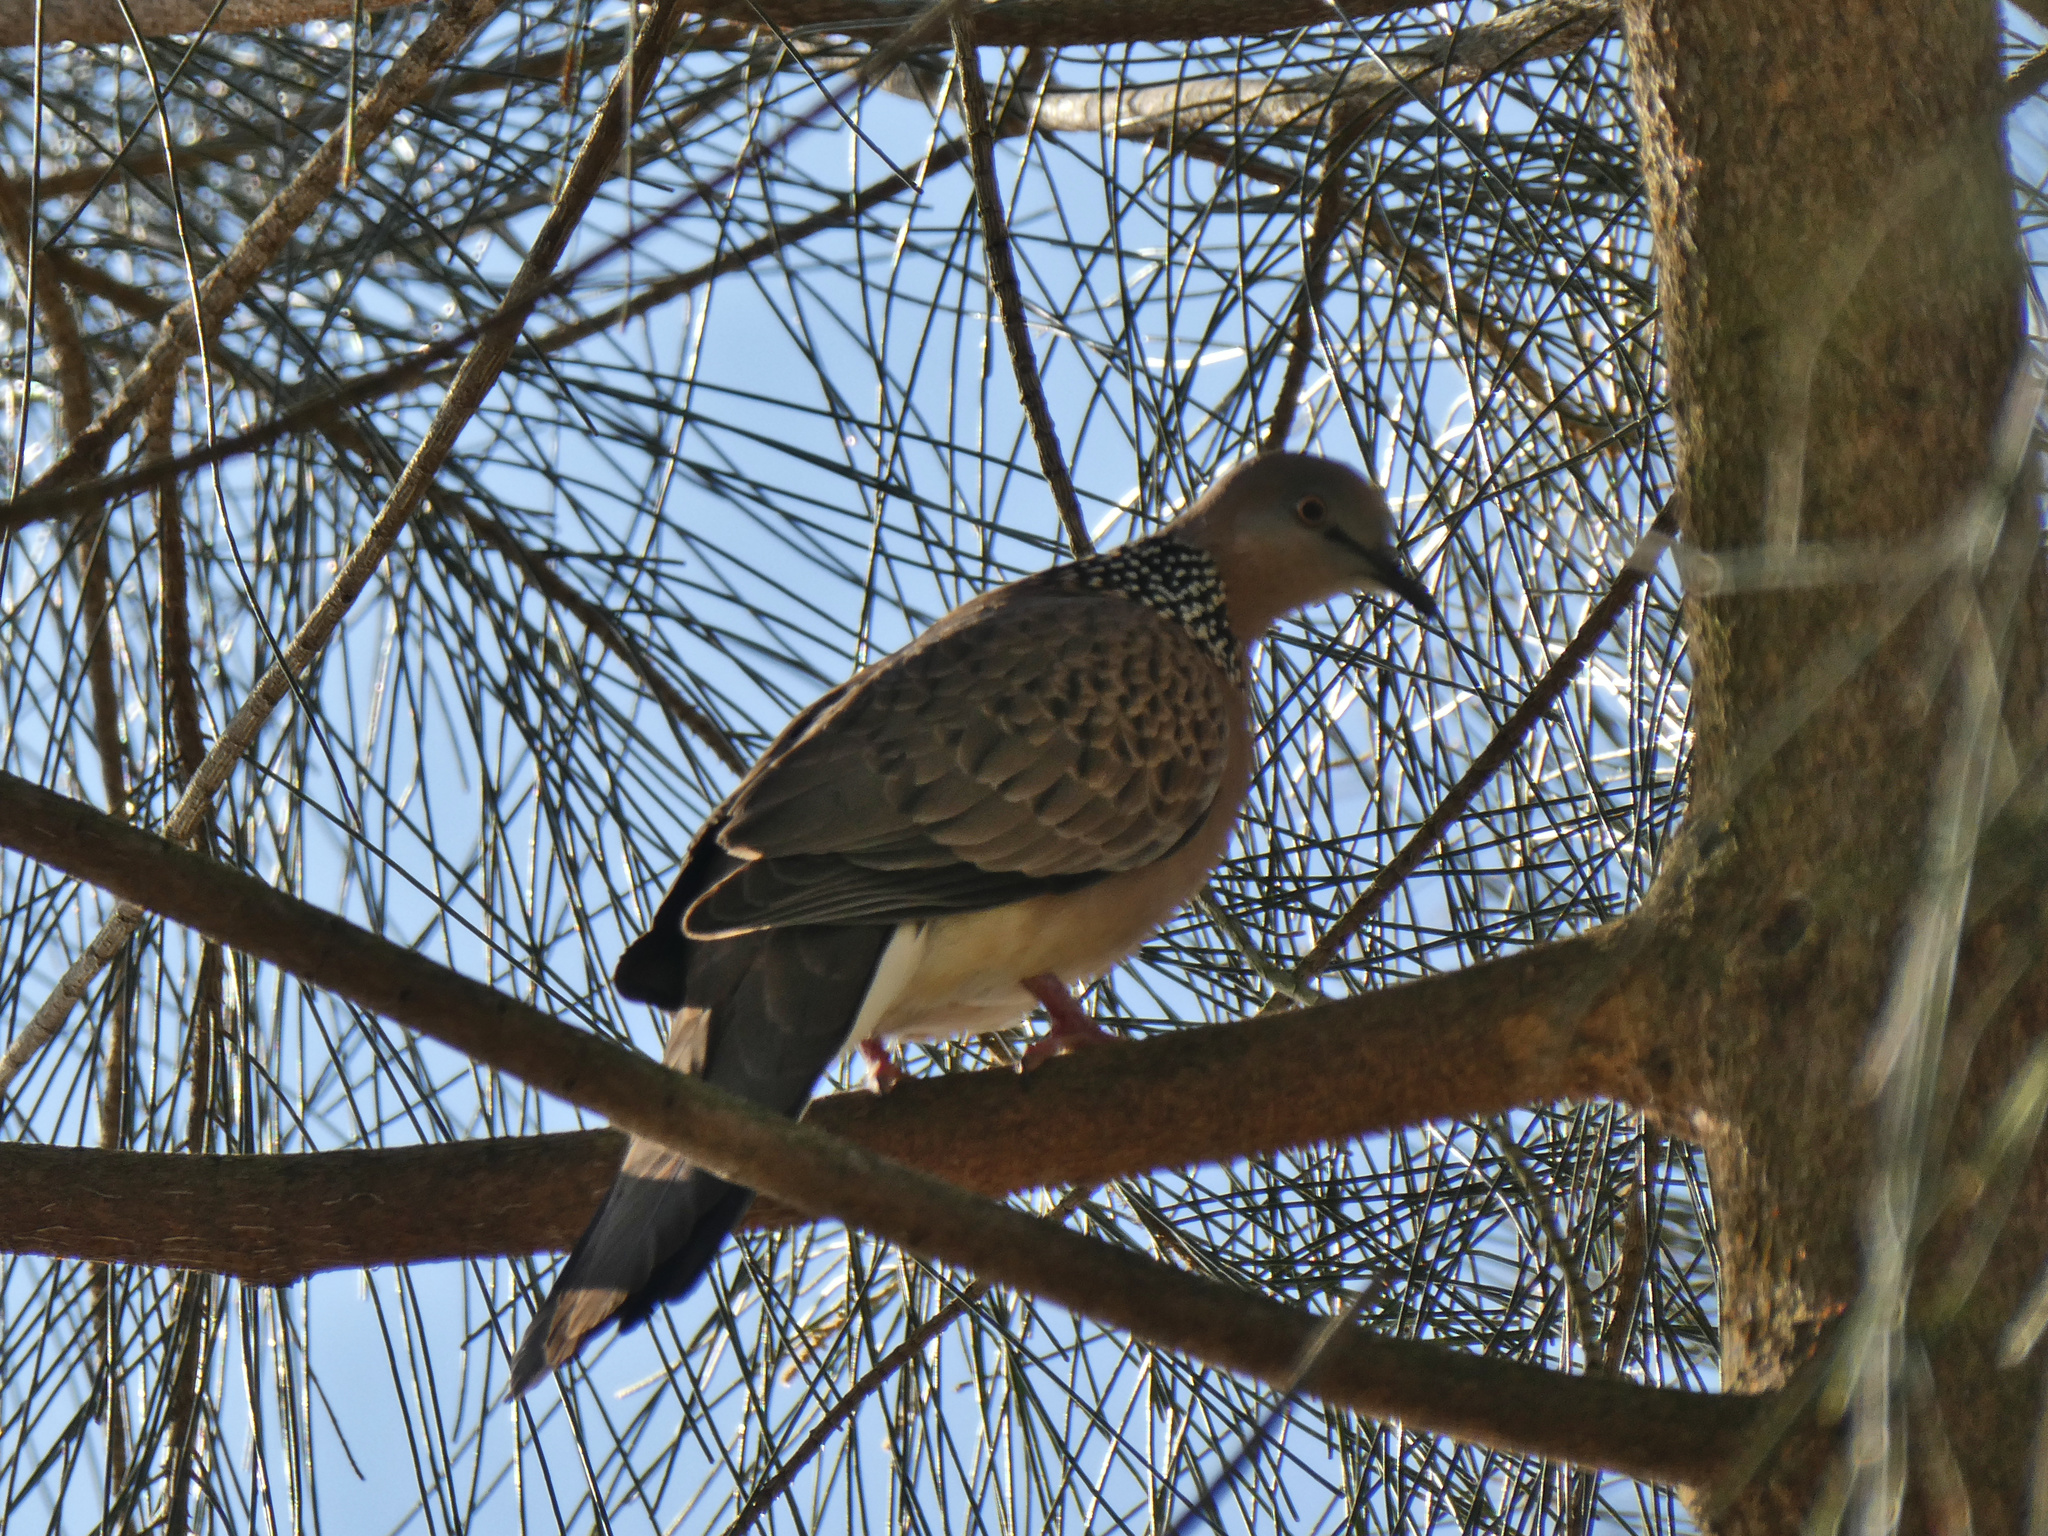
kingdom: Animalia
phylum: Chordata
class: Aves
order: Columbiformes
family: Columbidae
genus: Spilopelia
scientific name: Spilopelia chinensis
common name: Spotted dove
